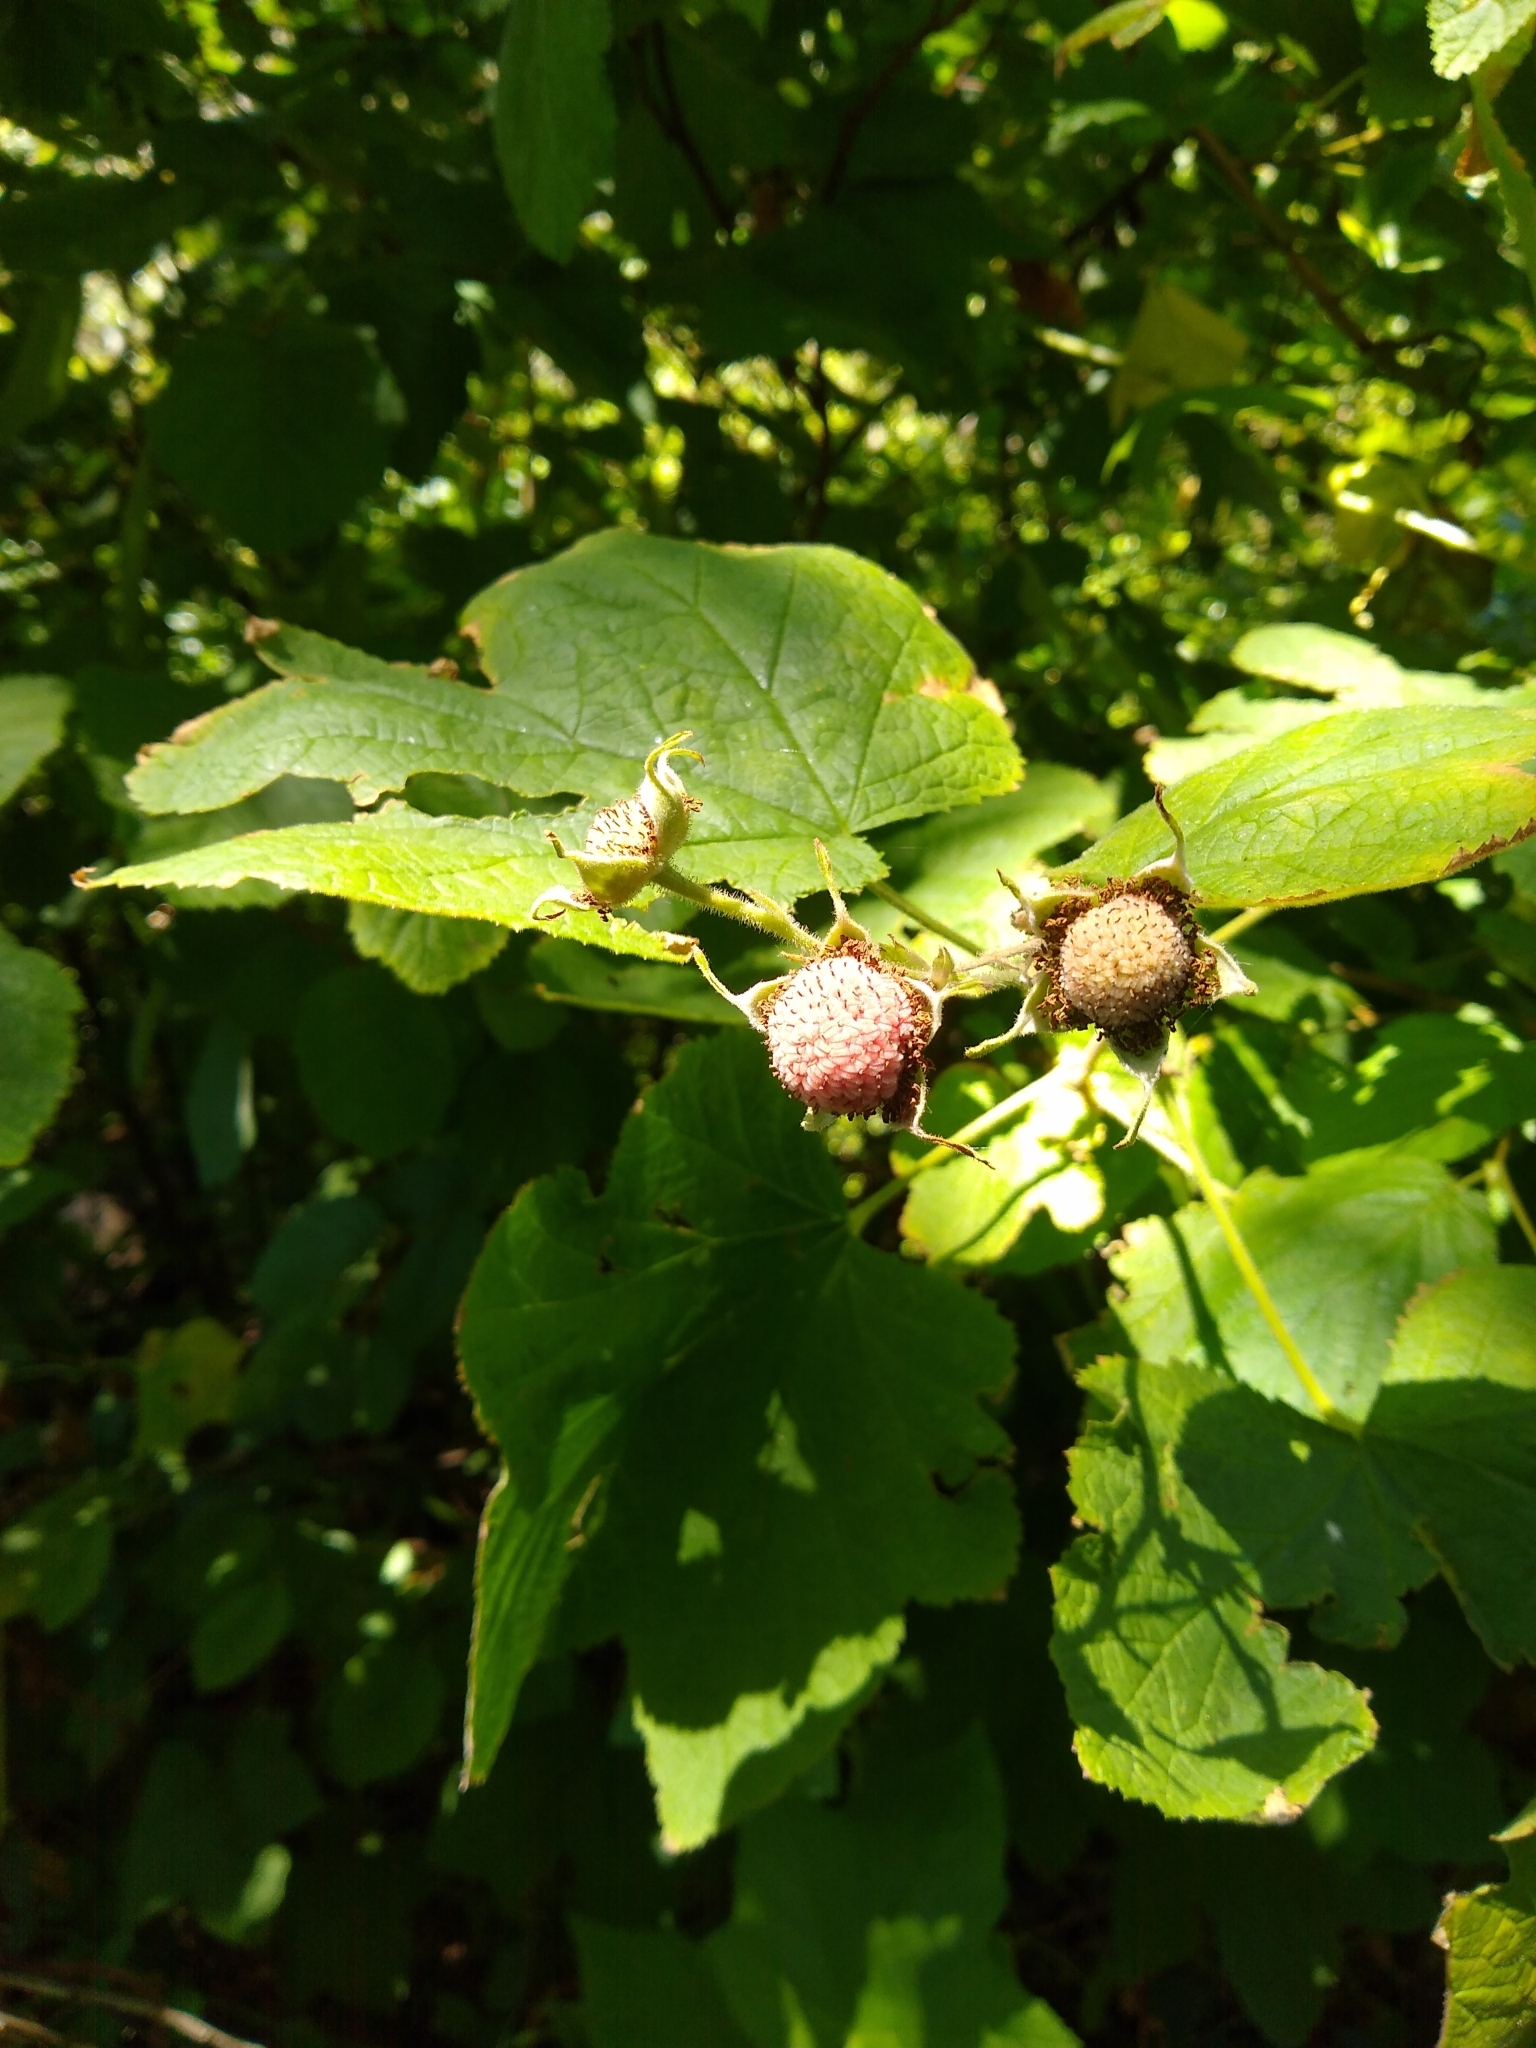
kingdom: Plantae
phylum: Tracheophyta
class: Magnoliopsida
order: Rosales
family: Rosaceae
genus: Rubus
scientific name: Rubus parviflorus
